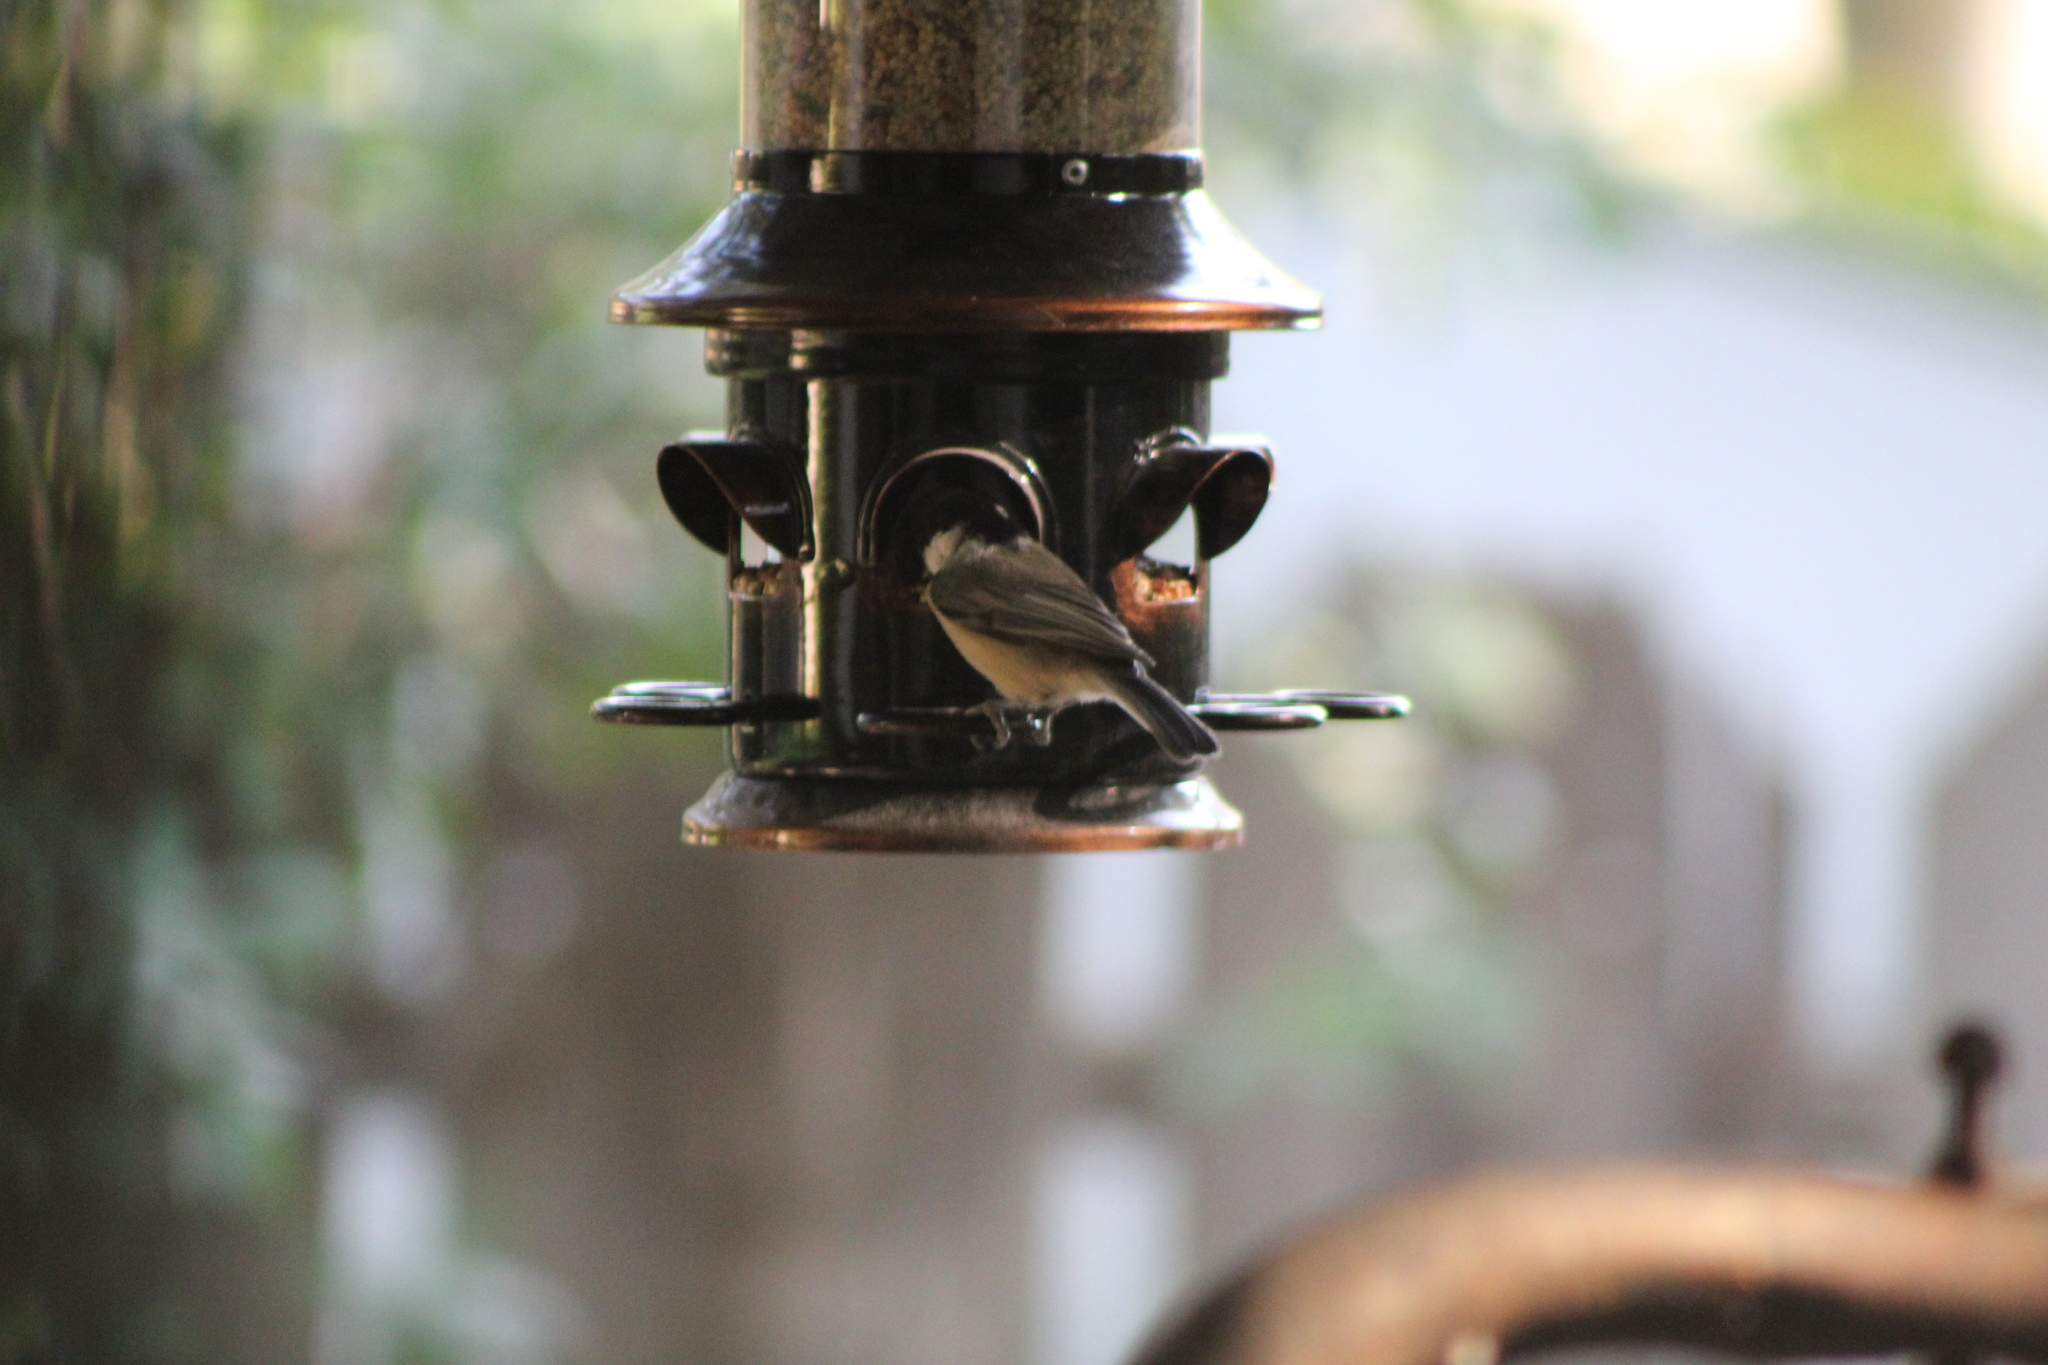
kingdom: Animalia
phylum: Chordata
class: Aves
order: Passeriformes
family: Paridae
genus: Poecile
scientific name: Poecile carolinensis
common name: Carolina chickadee
